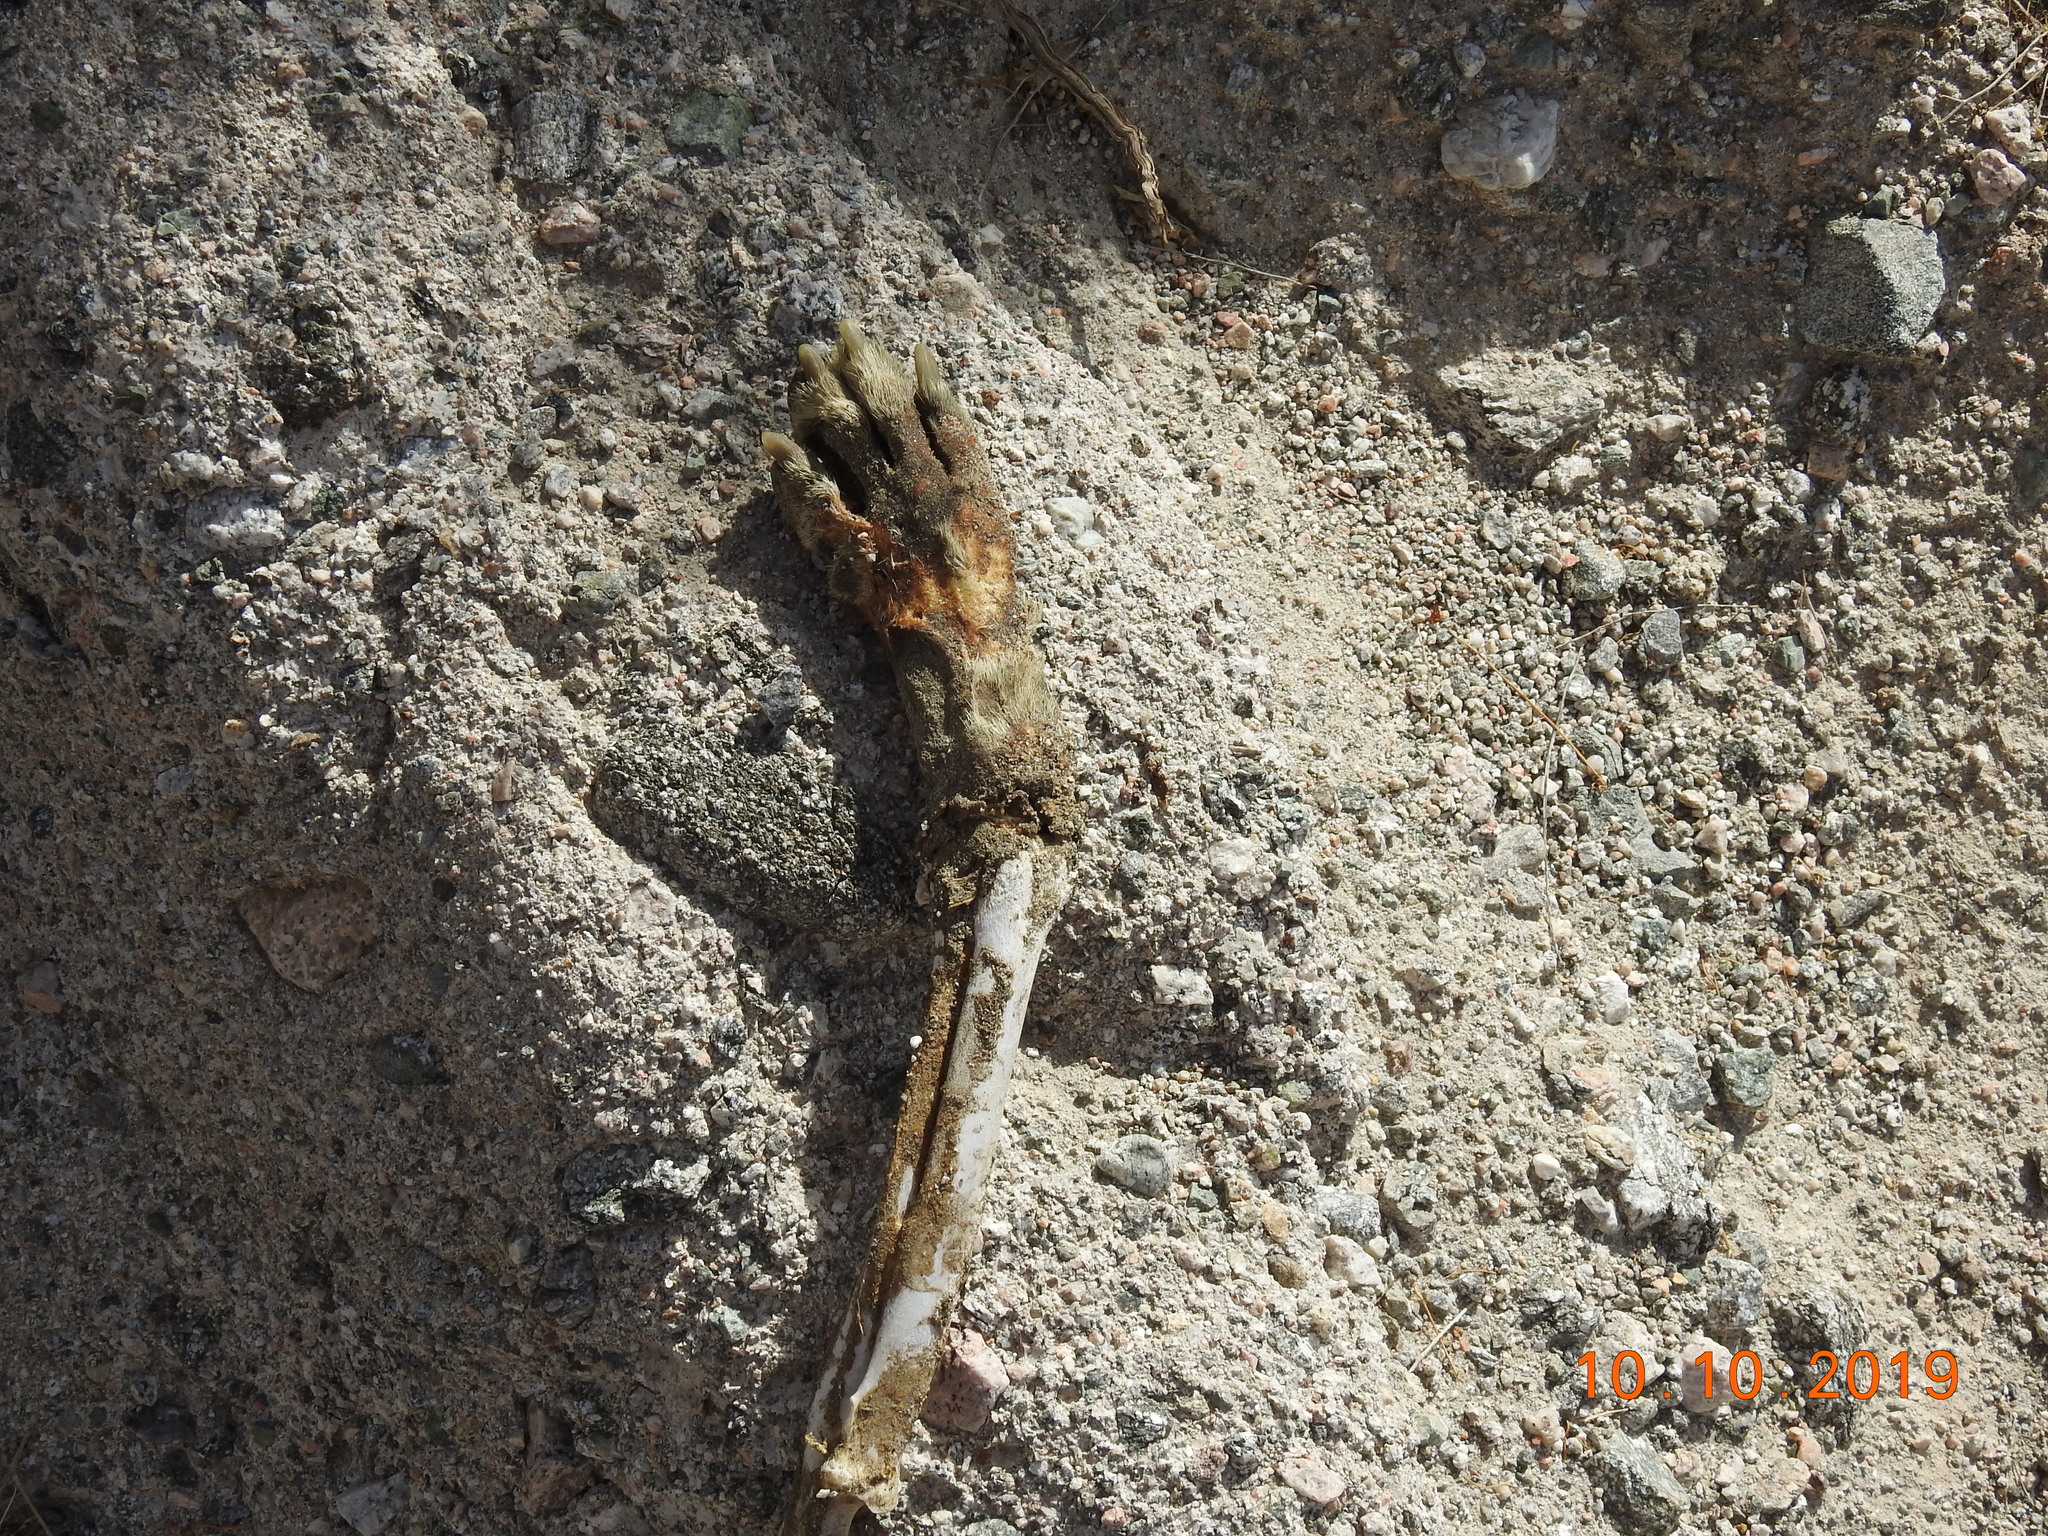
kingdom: Animalia
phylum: Chordata
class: Mammalia
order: Carnivora
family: Canidae
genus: Canis
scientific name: Canis lupus
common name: Gray wolf
